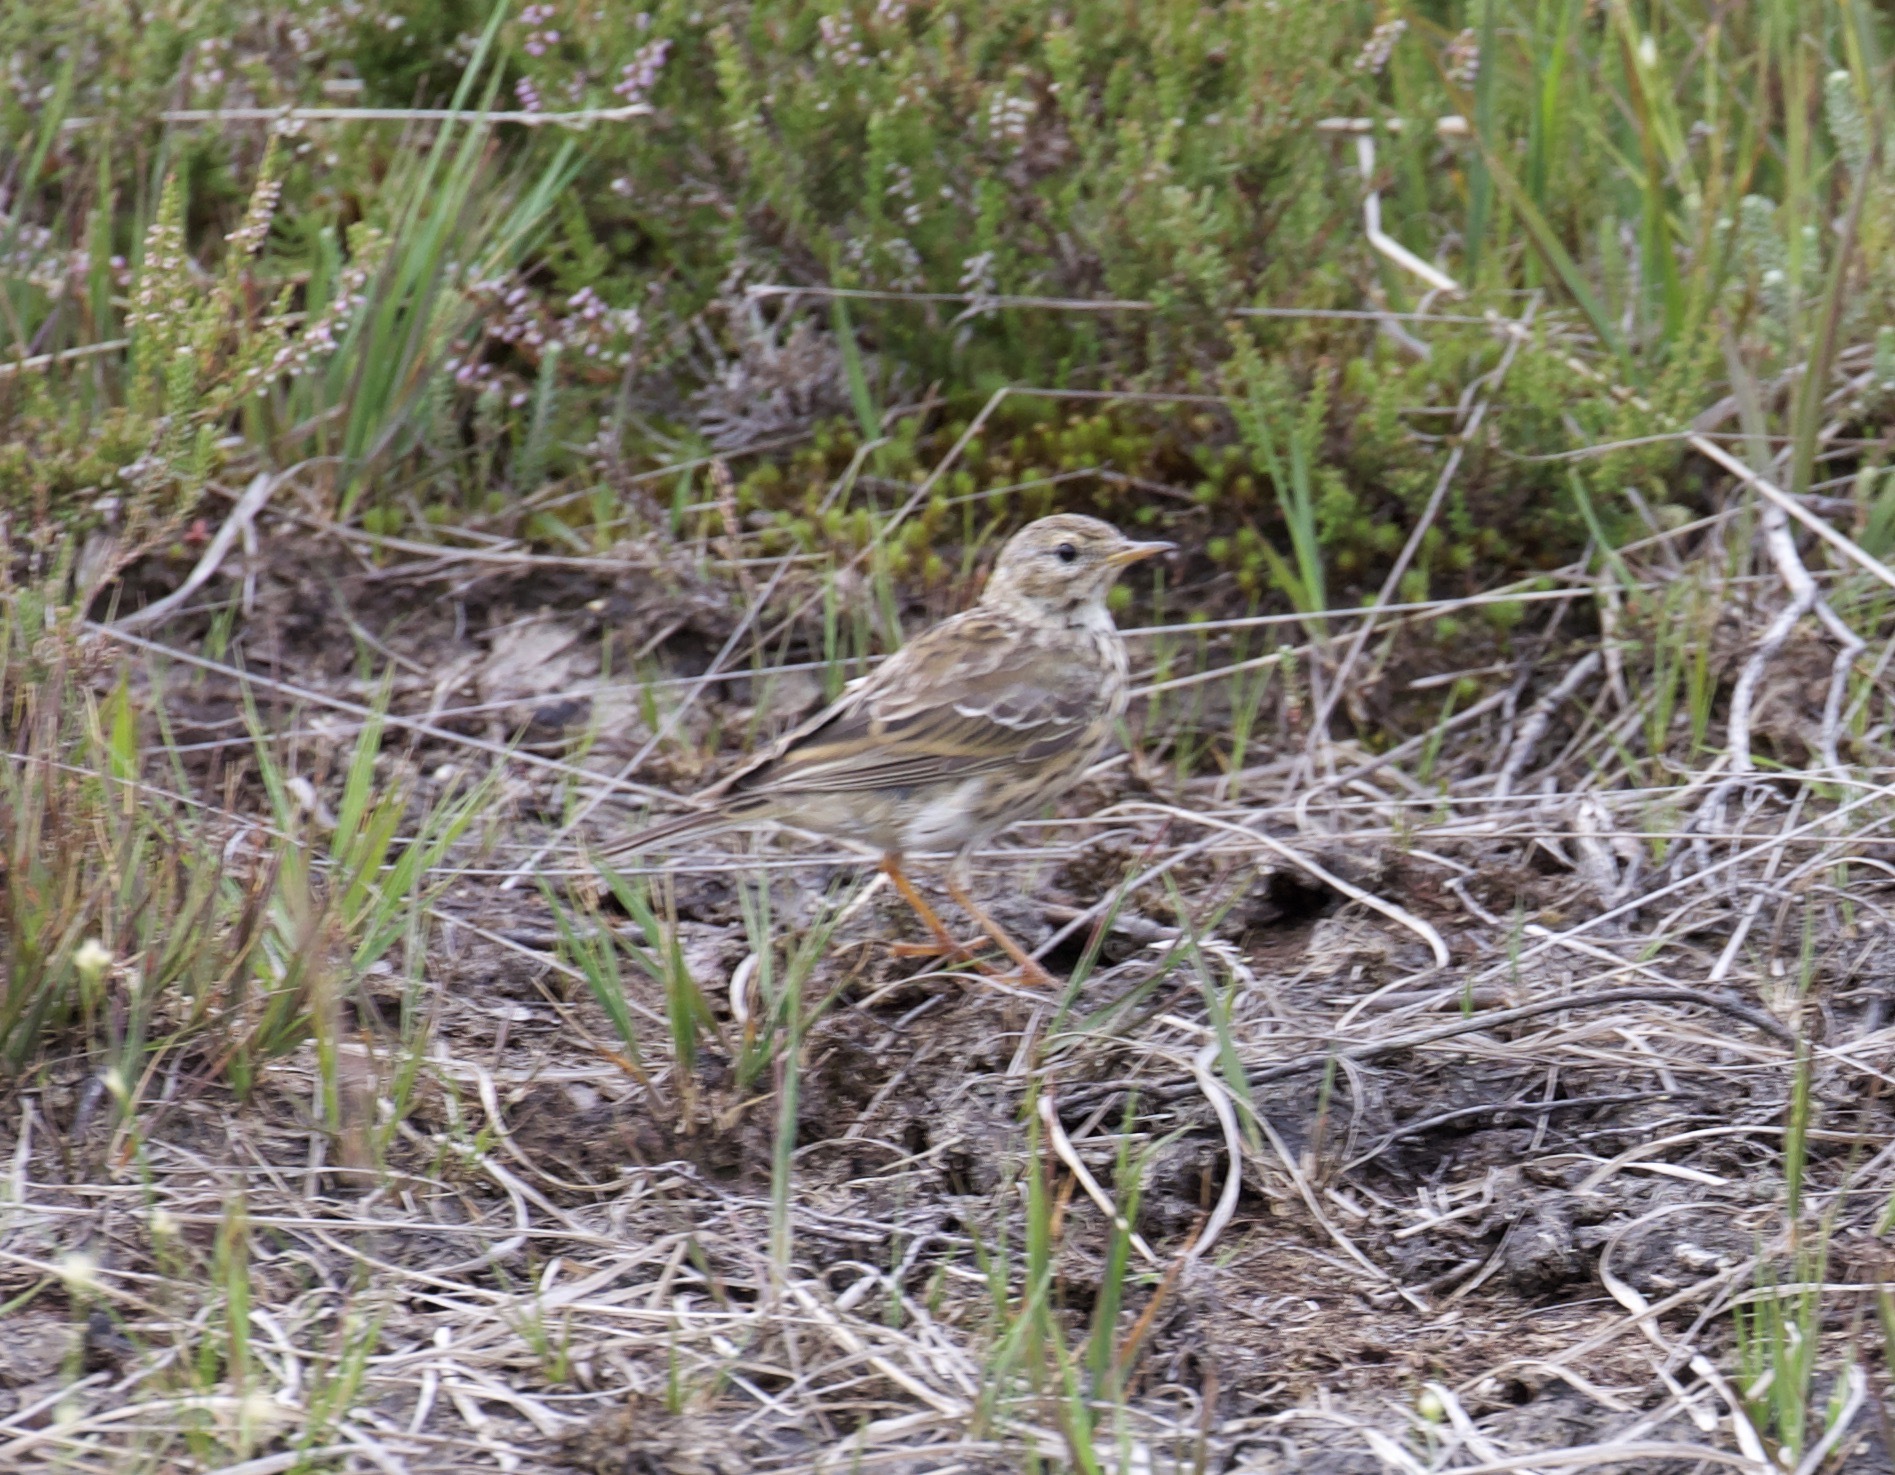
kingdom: Animalia
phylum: Chordata
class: Aves
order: Passeriformes
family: Motacillidae
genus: Anthus
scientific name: Anthus pratensis
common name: Meadow pipit
